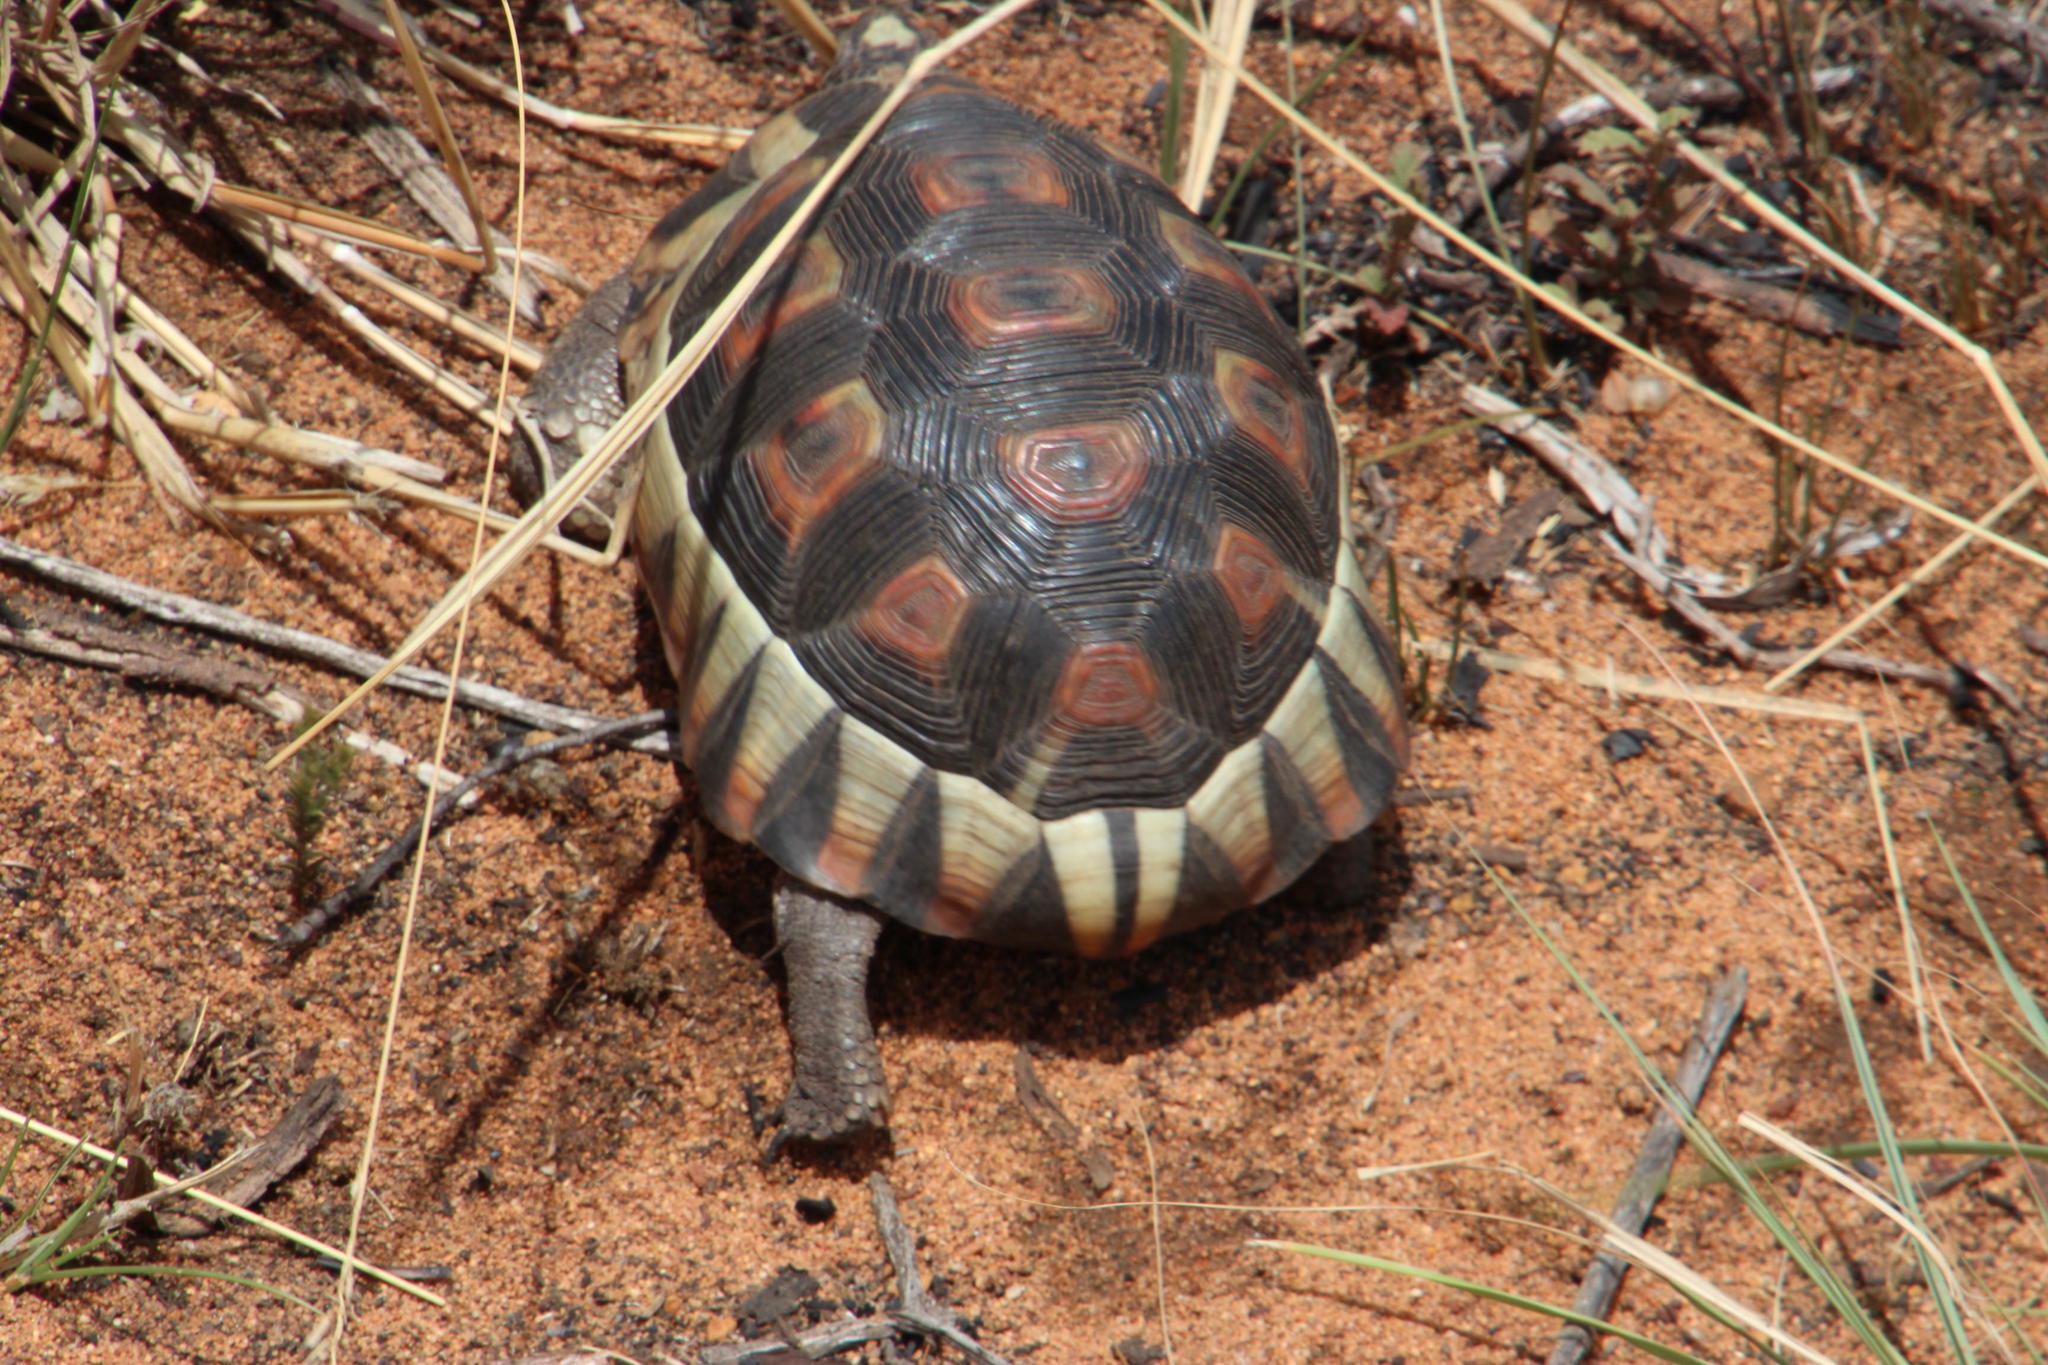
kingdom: Animalia
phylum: Chordata
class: Testudines
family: Testudinidae
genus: Chersina
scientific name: Chersina angulata
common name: South african bowsprit tortoise
